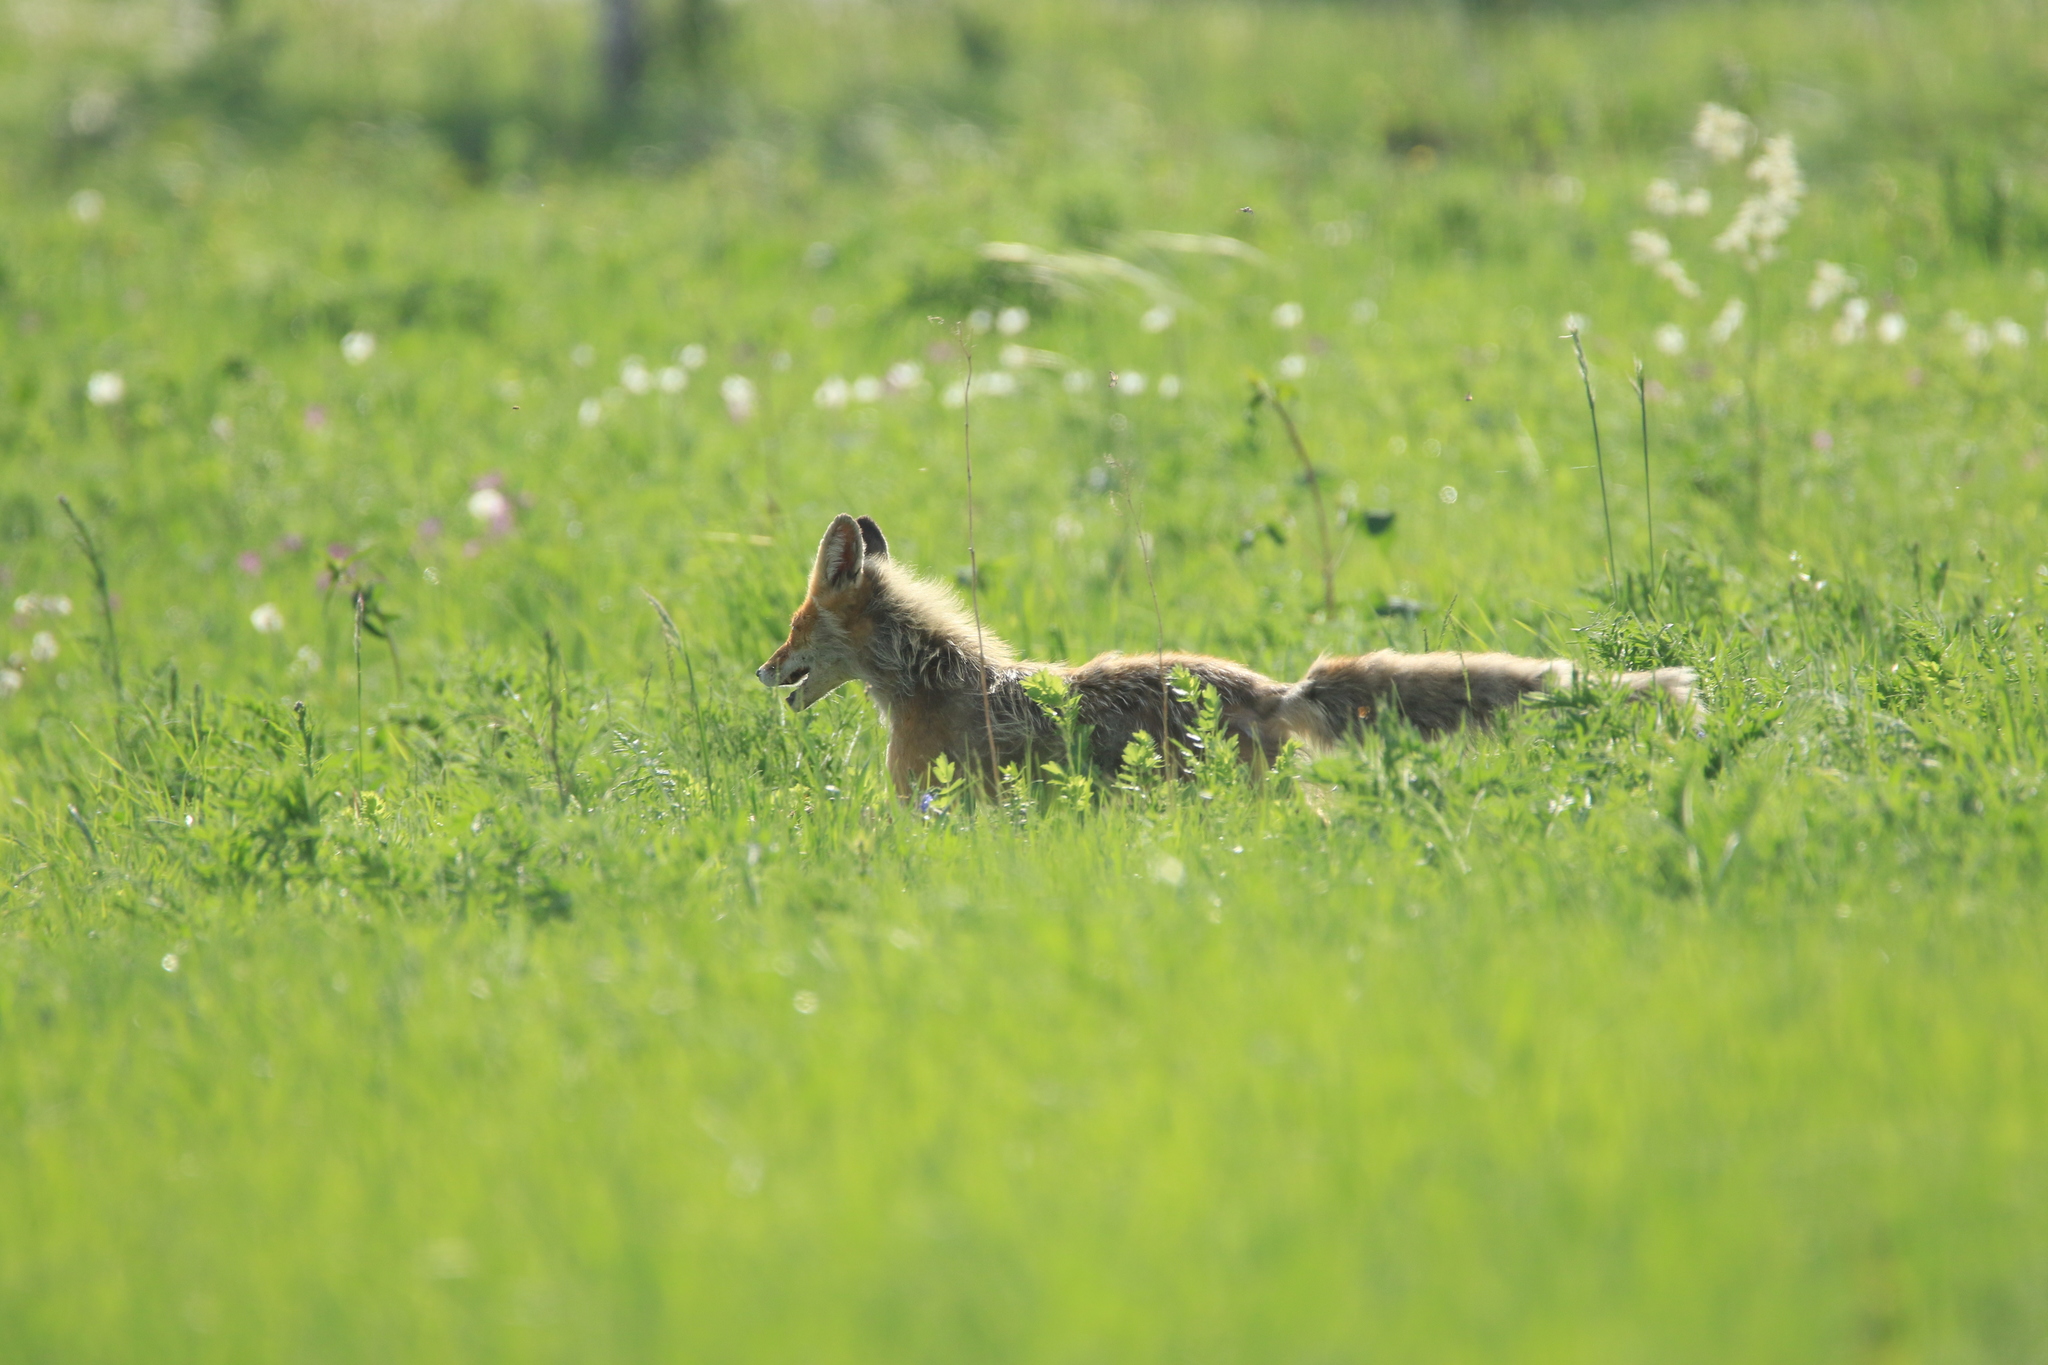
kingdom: Animalia
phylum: Chordata
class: Mammalia
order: Carnivora
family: Canidae
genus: Vulpes
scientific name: Vulpes vulpes
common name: Red fox
